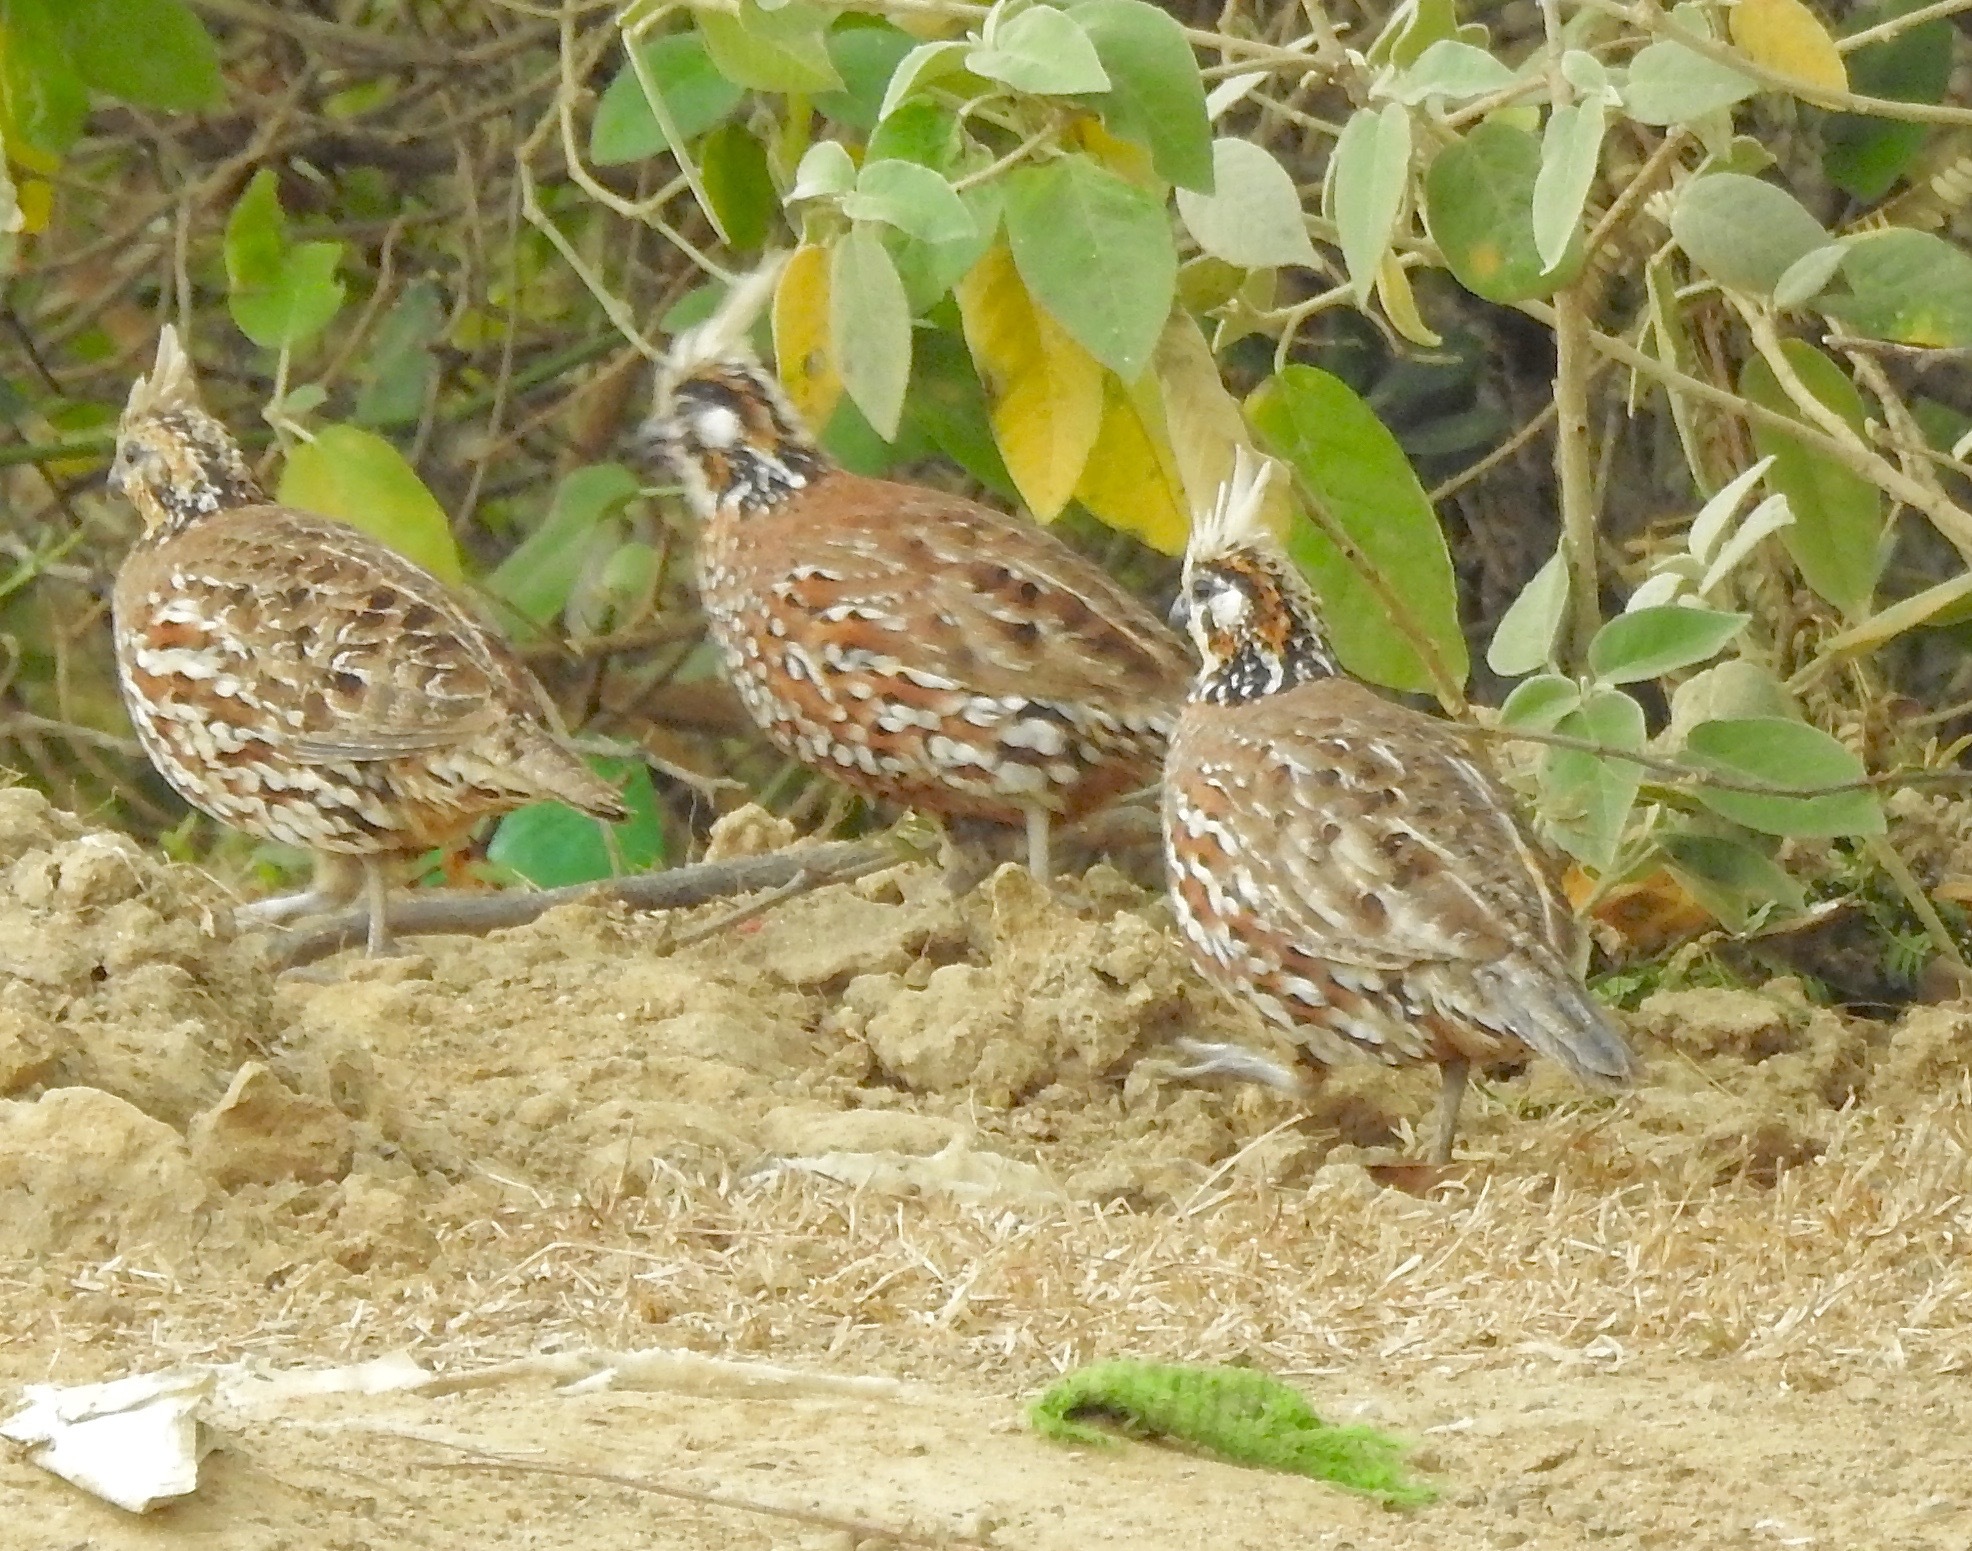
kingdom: Animalia
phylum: Chordata
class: Aves
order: Galliformes
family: Odontophoridae
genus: Colinus
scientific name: Colinus cristatus
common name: Crested bobwhite
